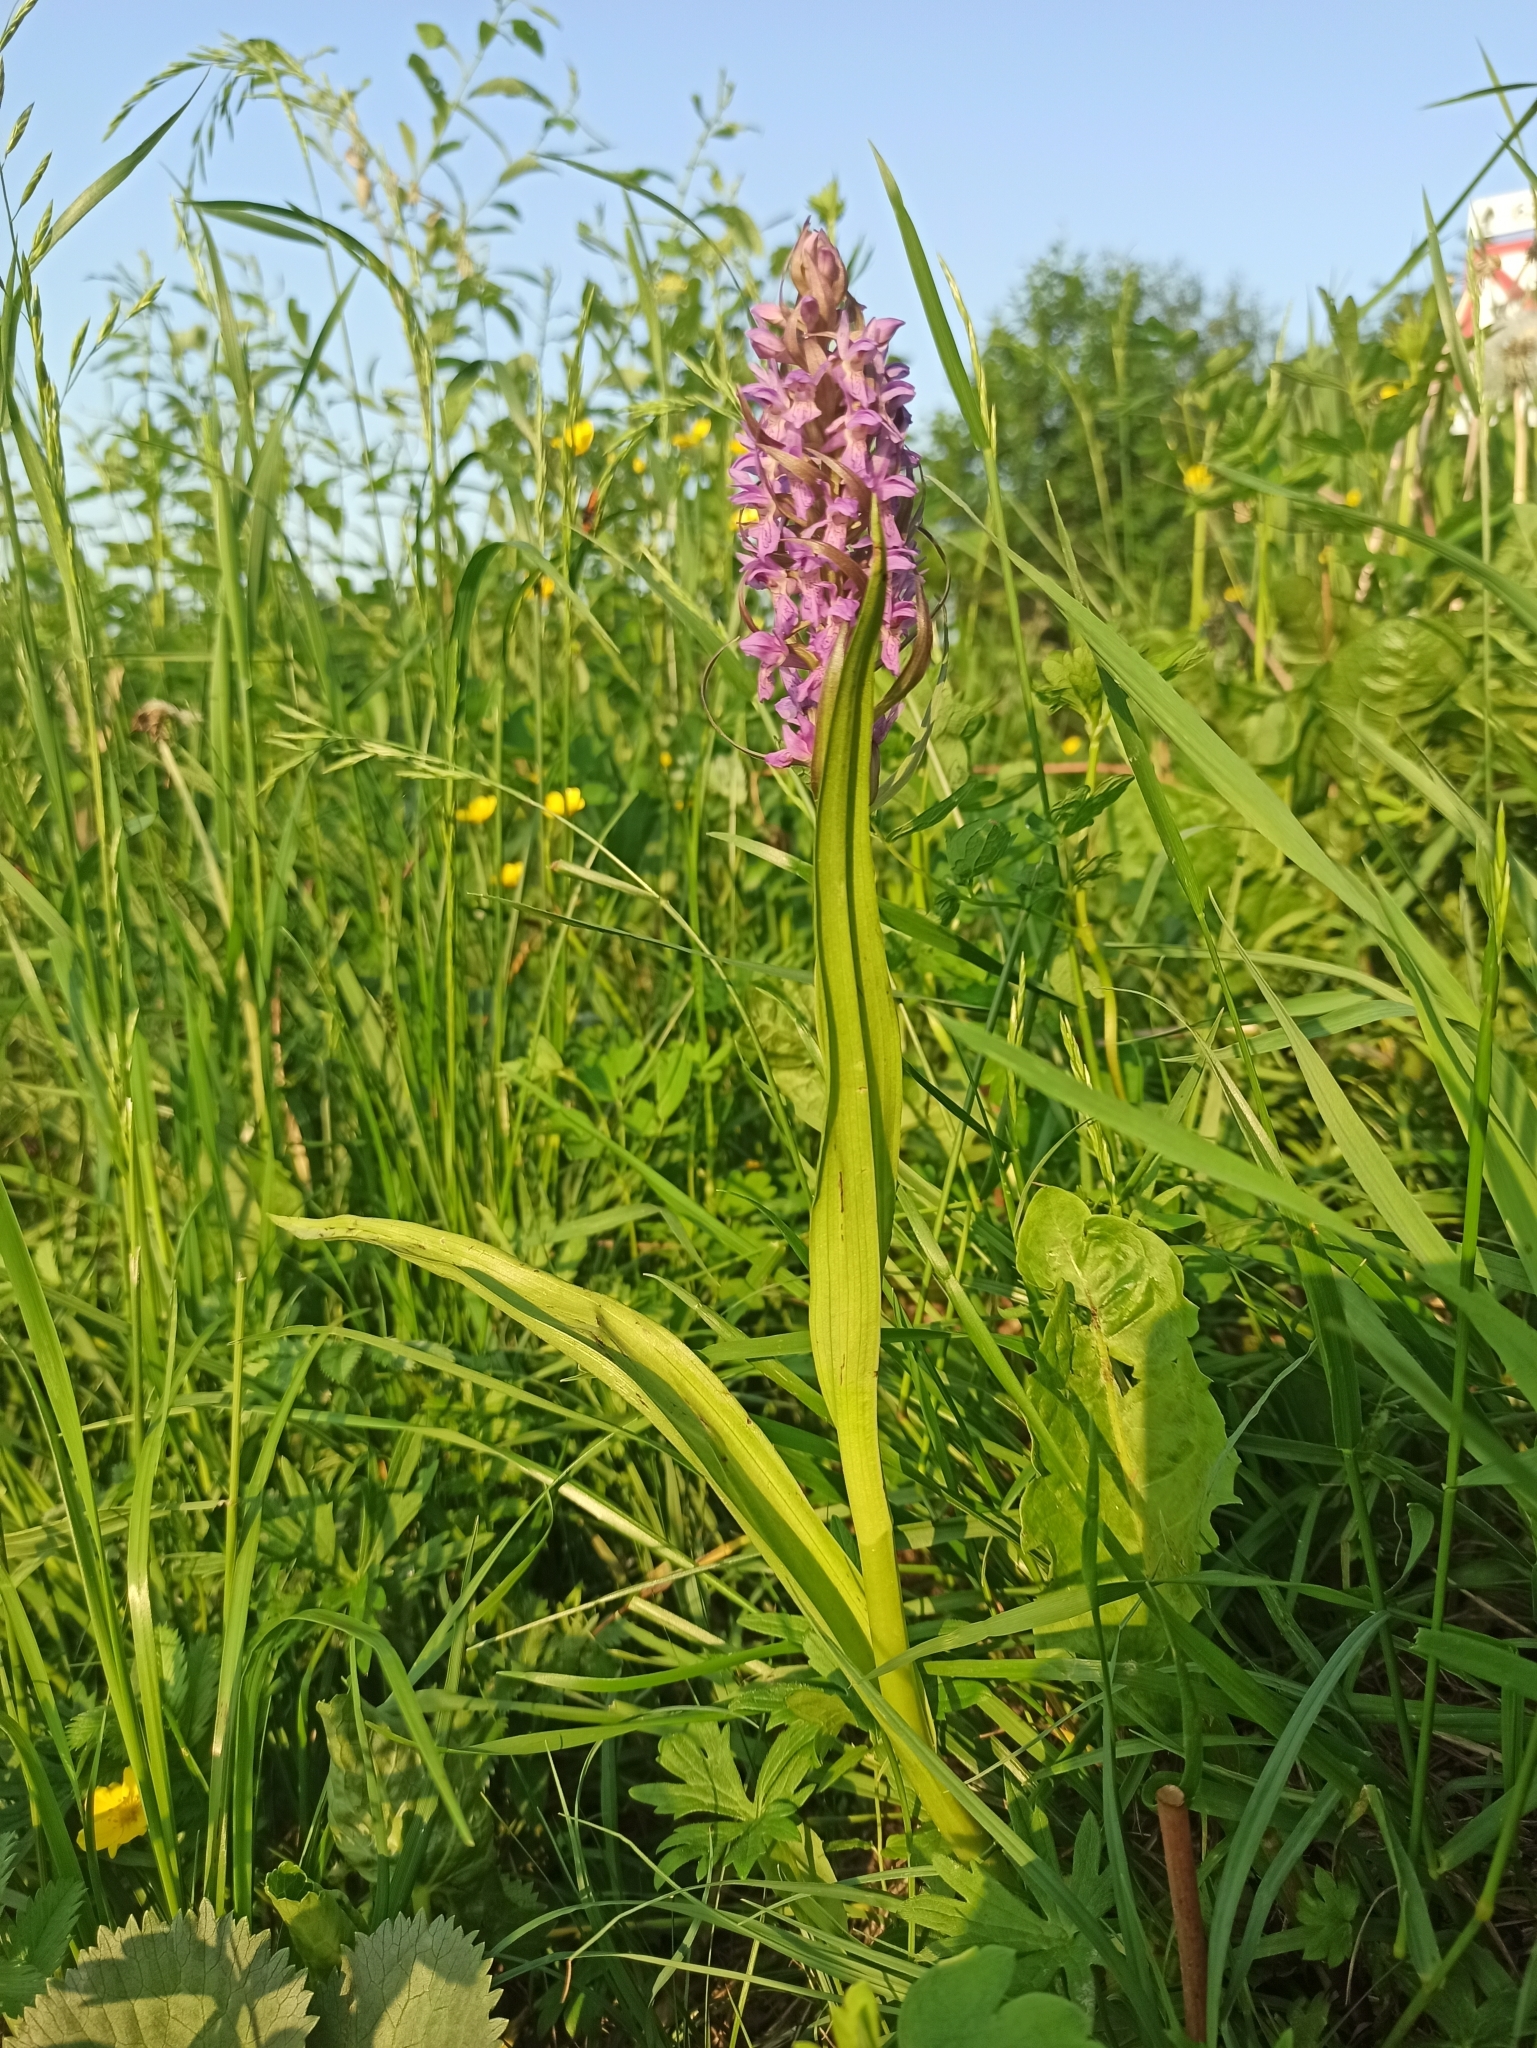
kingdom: Plantae
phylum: Tracheophyta
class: Liliopsida
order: Asparagales
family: Orchidaceae
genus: Dactylorhiza
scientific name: Dactylorhiza incarnata
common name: Early marsh-orchid
